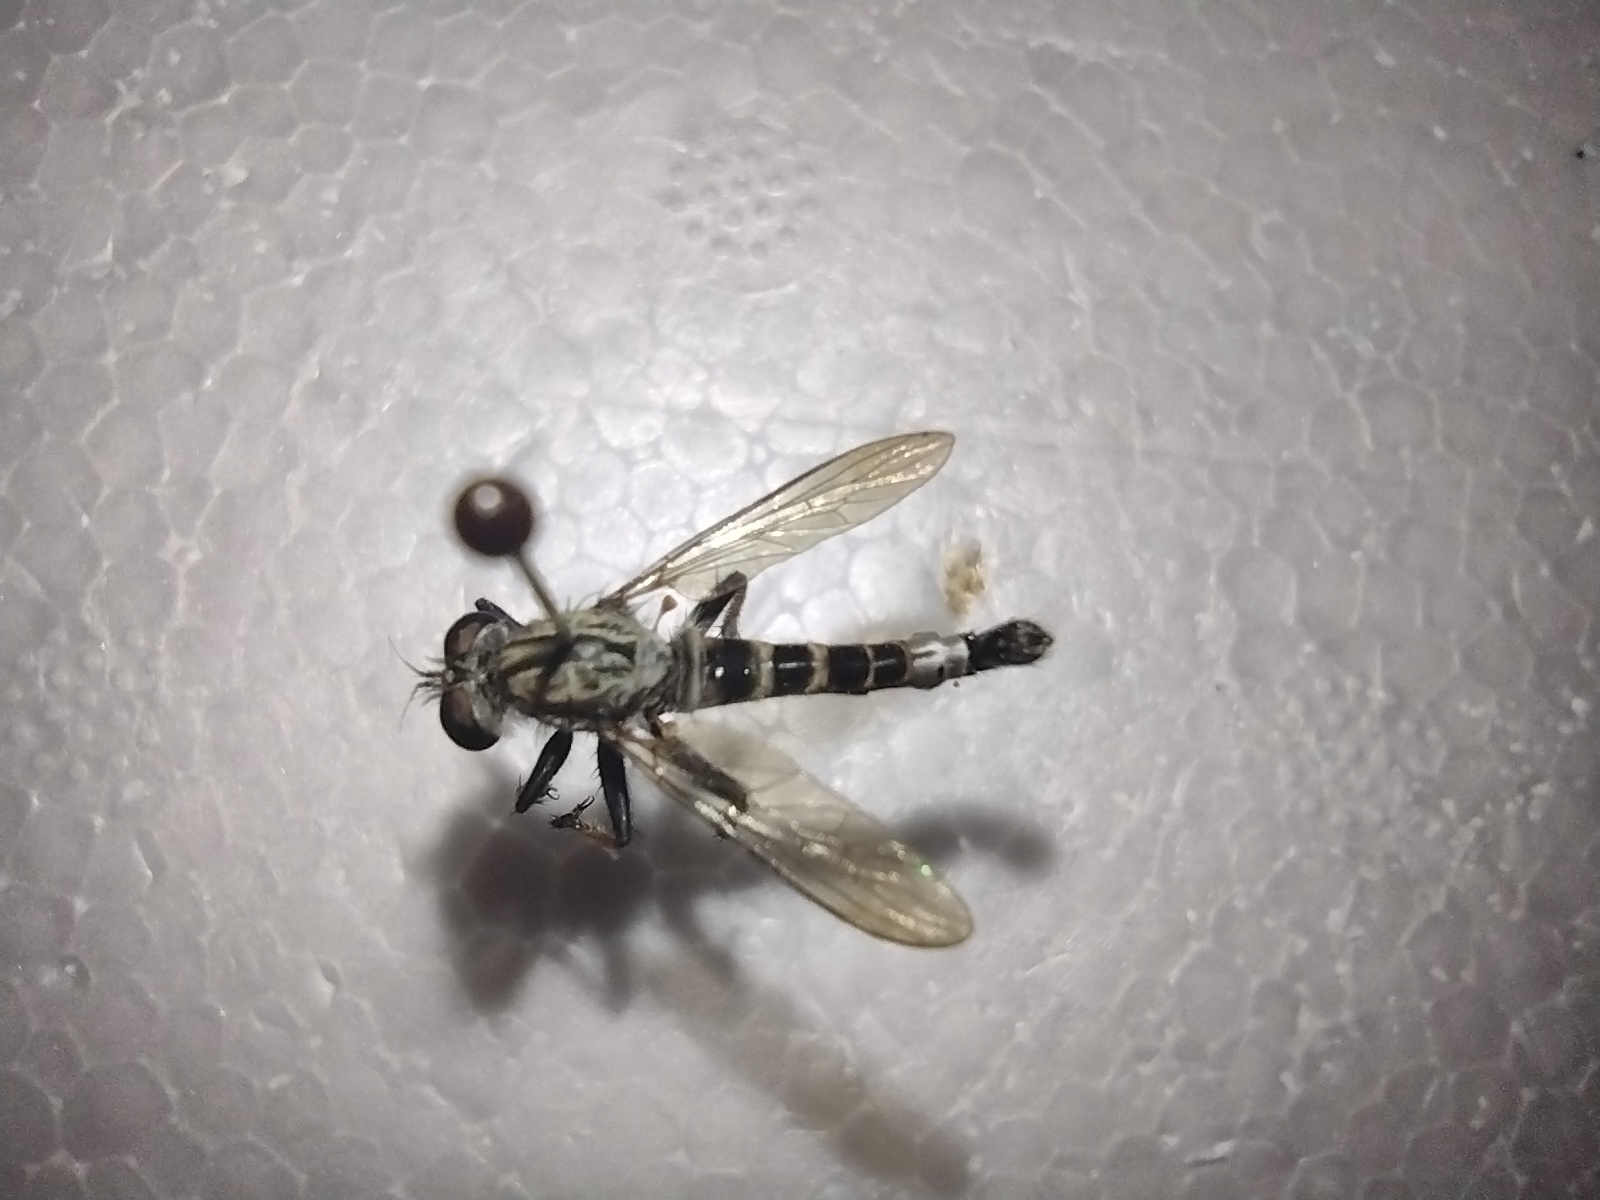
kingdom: Animalia
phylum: Arthropoda
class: Insecta
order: Diptera
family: Asilidae
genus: Efferia
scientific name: Efferia apicalis
